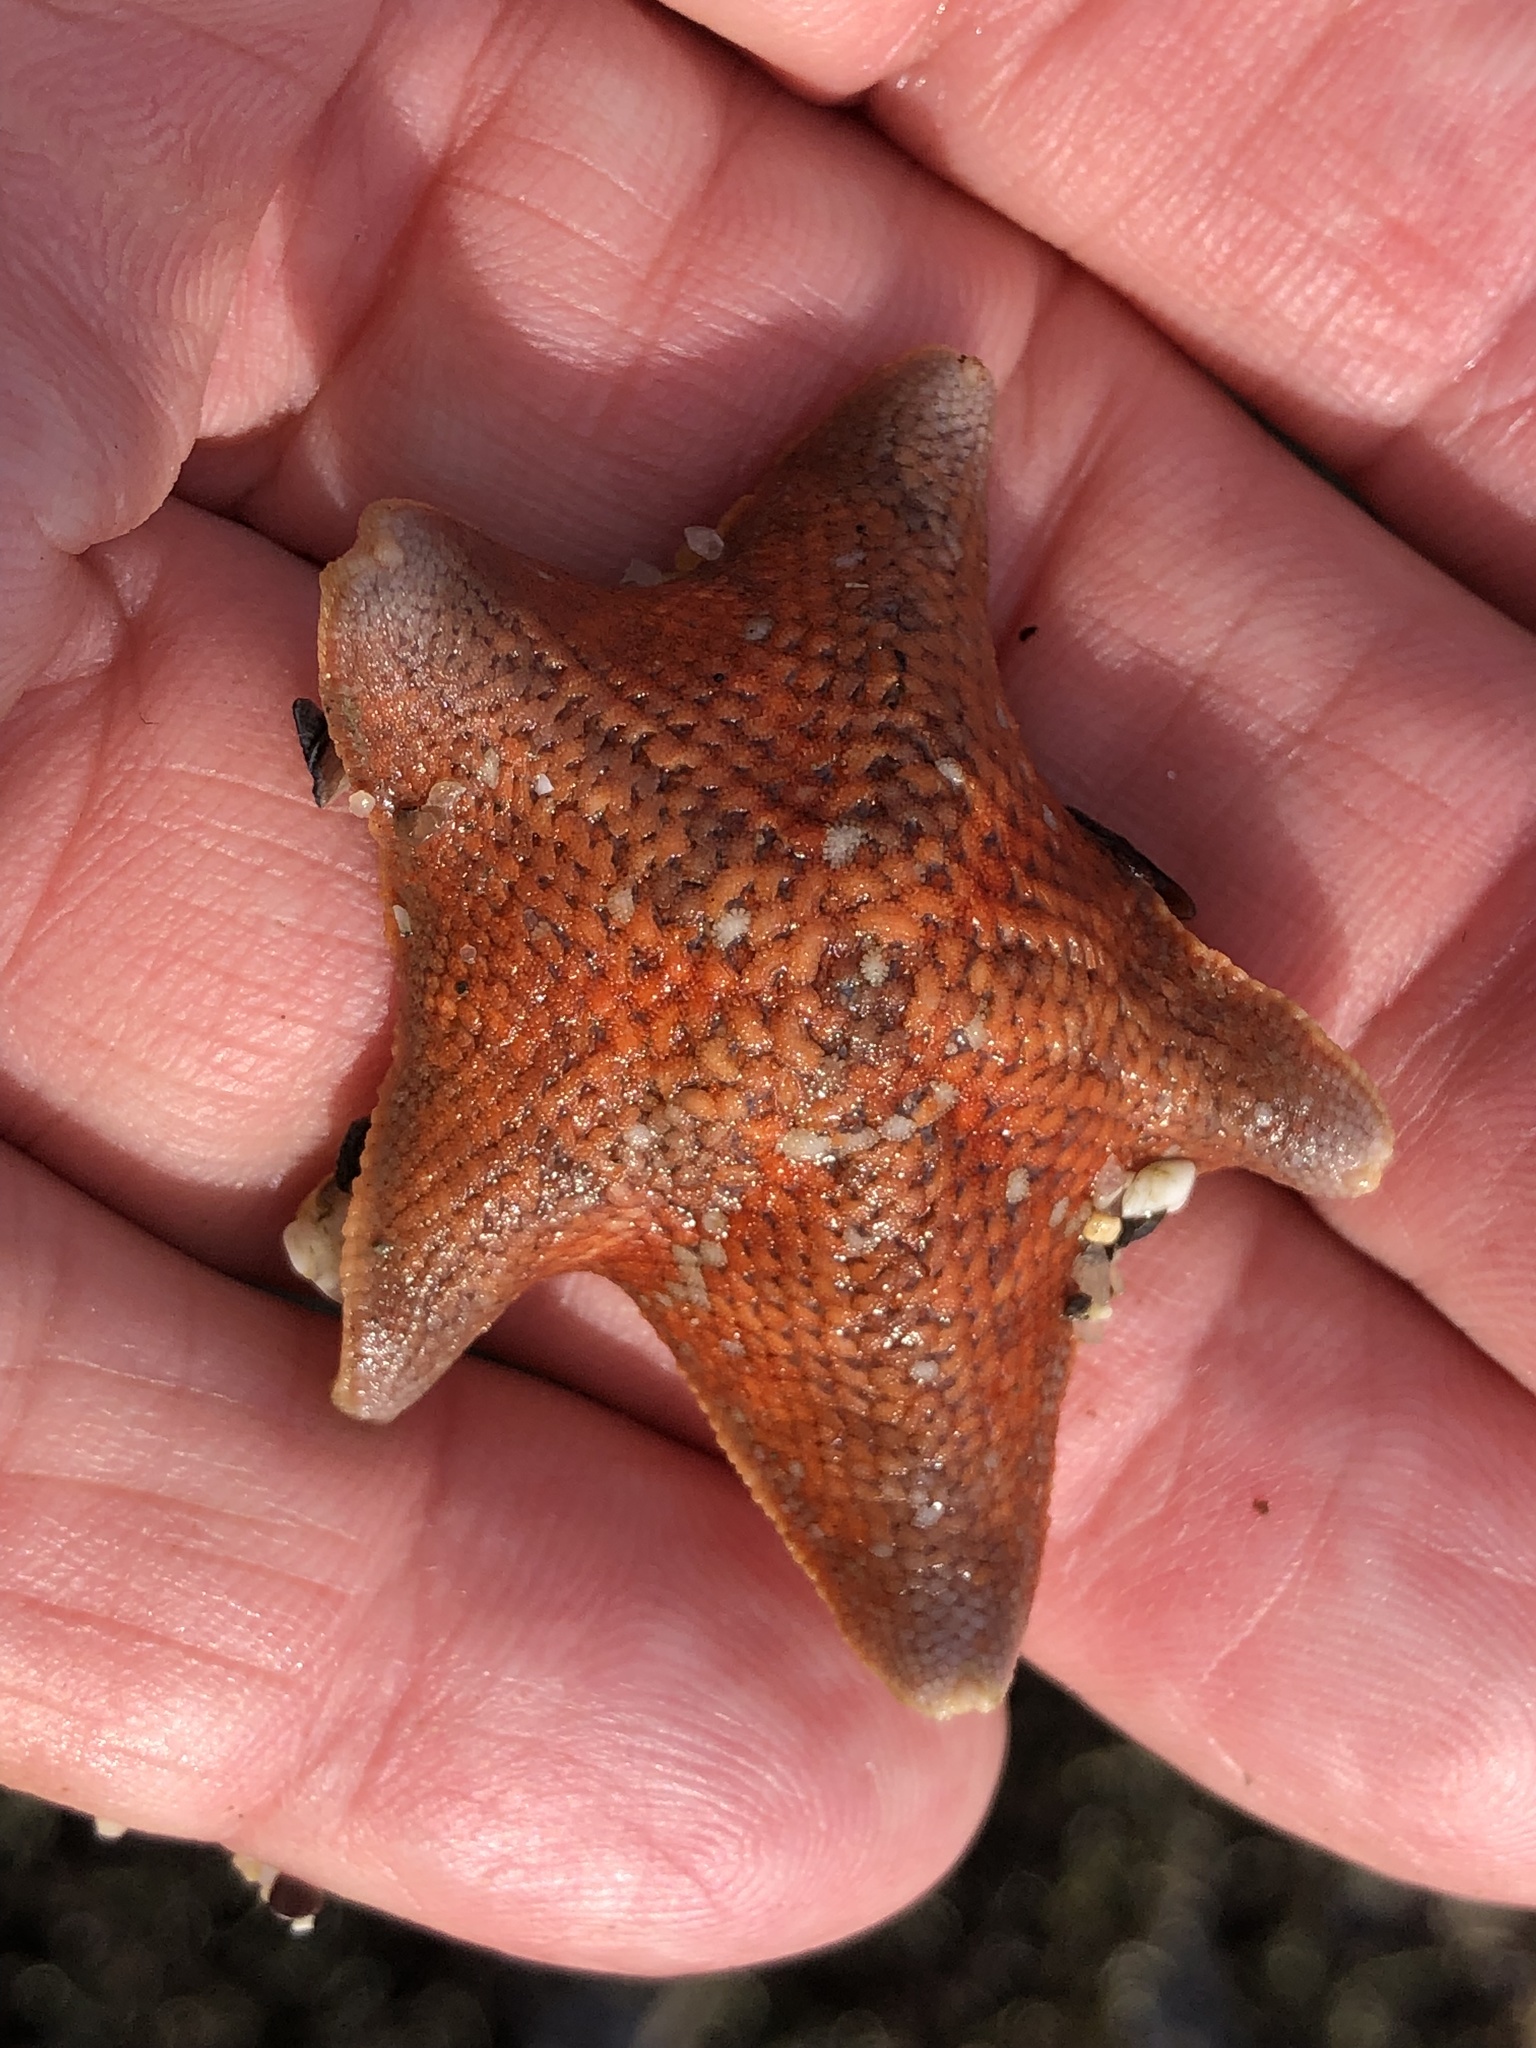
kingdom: Animalia
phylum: Echinodermata
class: Asteroidea
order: Valvatida
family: Asterinidae
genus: Patiria
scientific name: Patiria miniata
